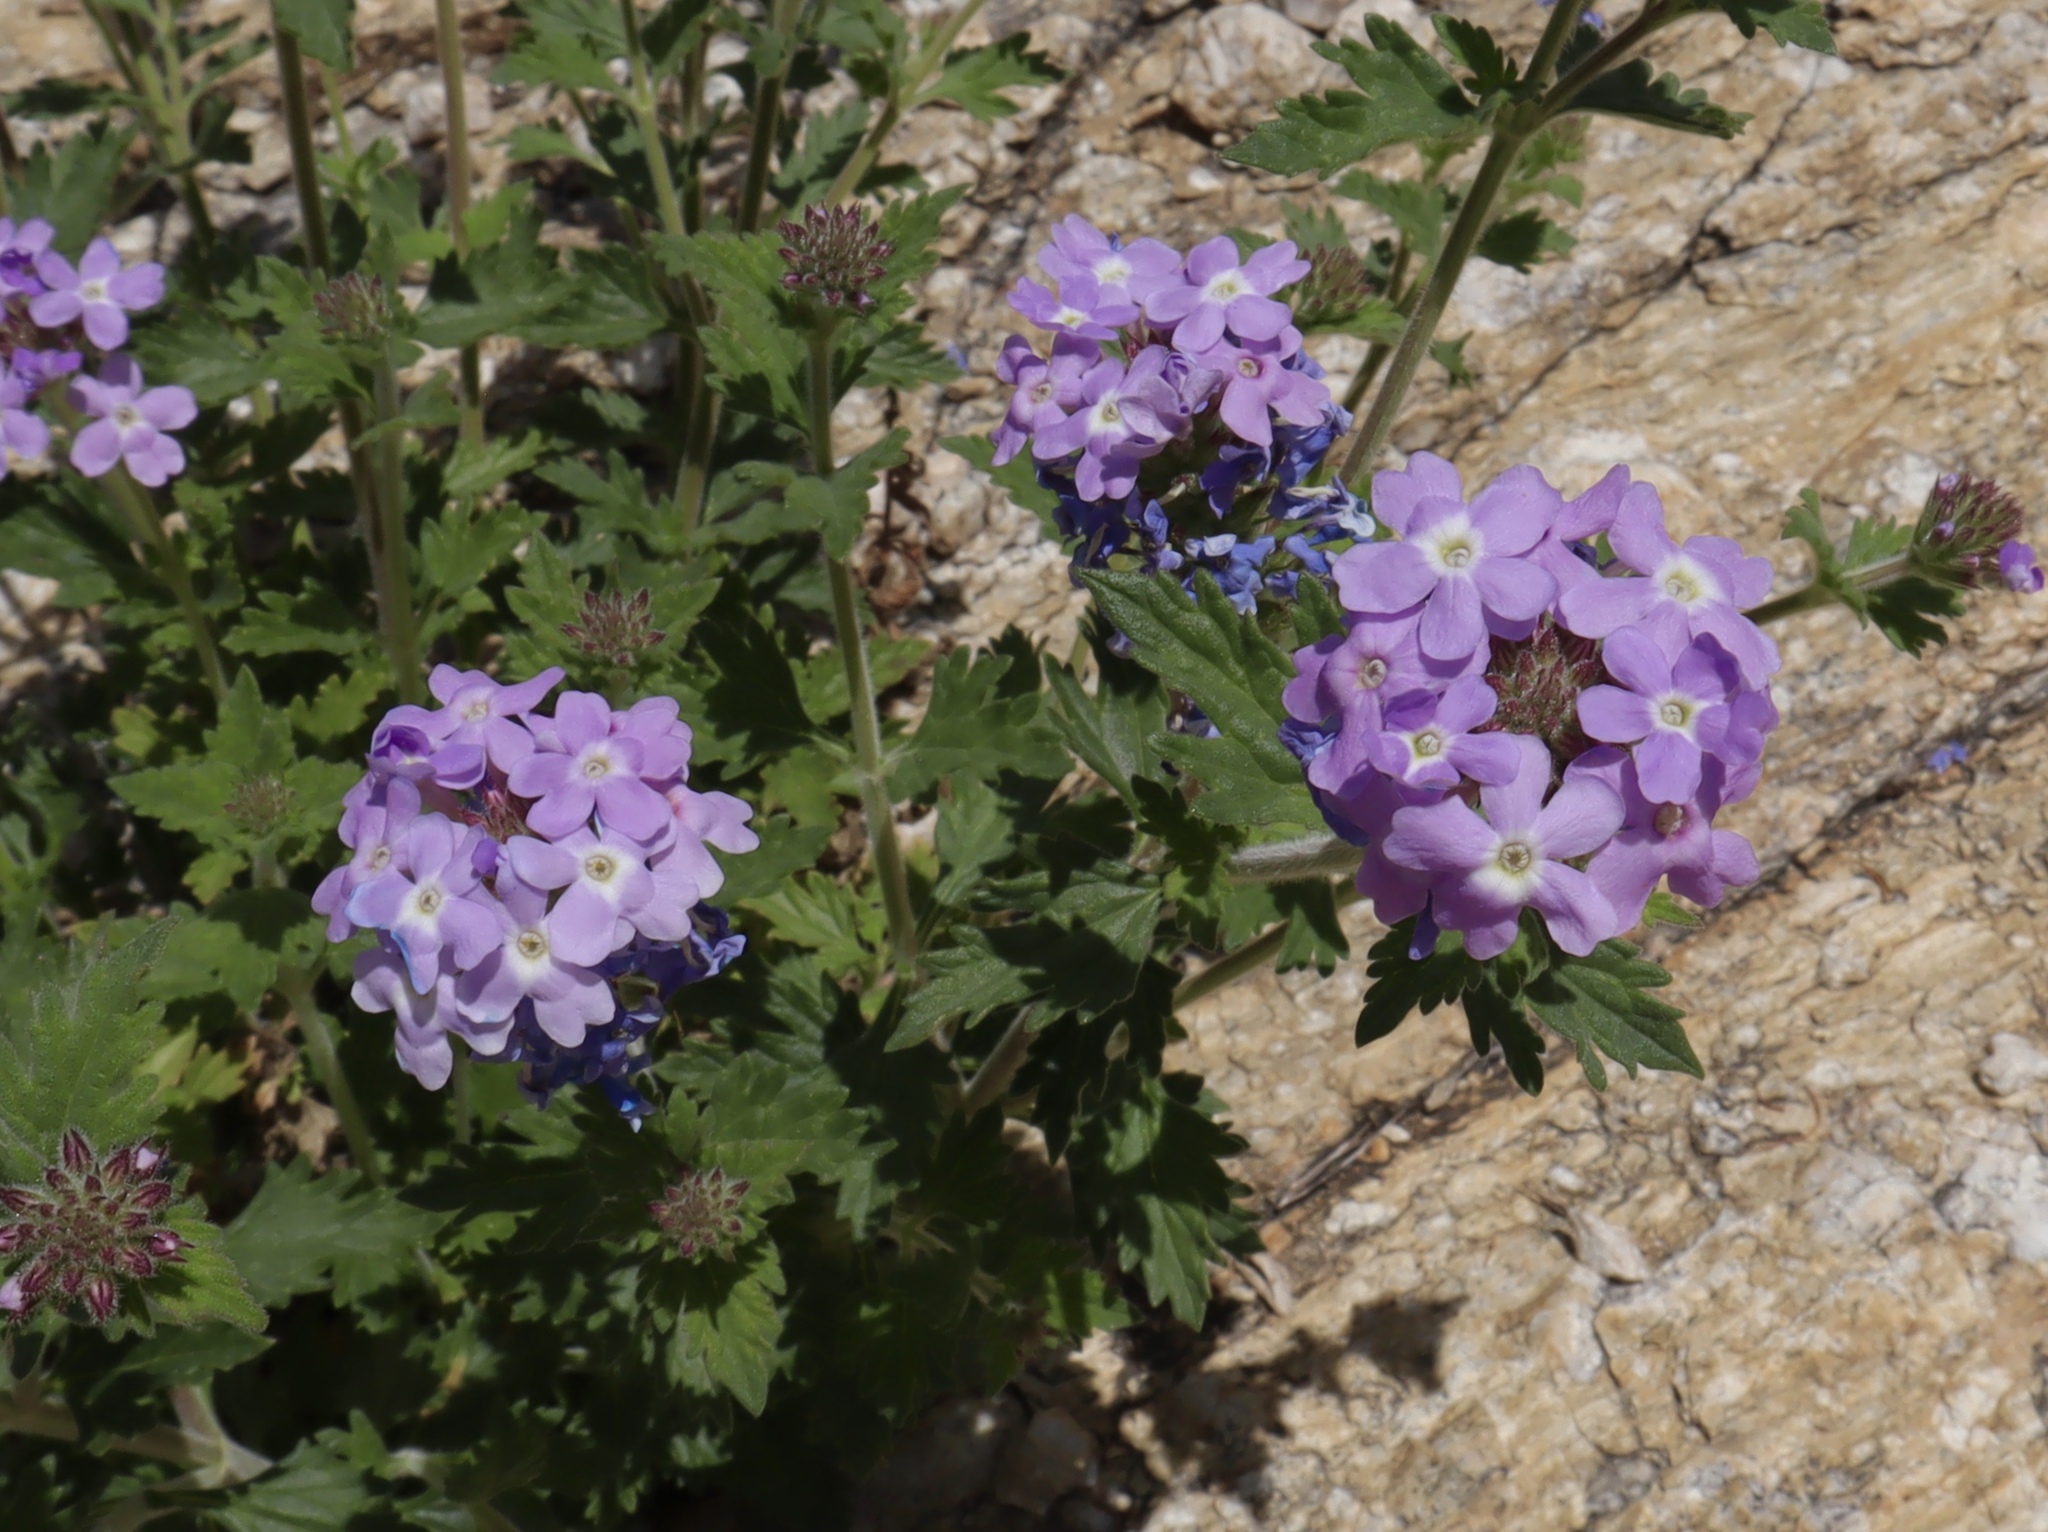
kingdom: Plantae
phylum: Tracheophyta
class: Magnoliopsida
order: Lamiales
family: Verbenaceae
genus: Verbena
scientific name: Verbena gooddingii
